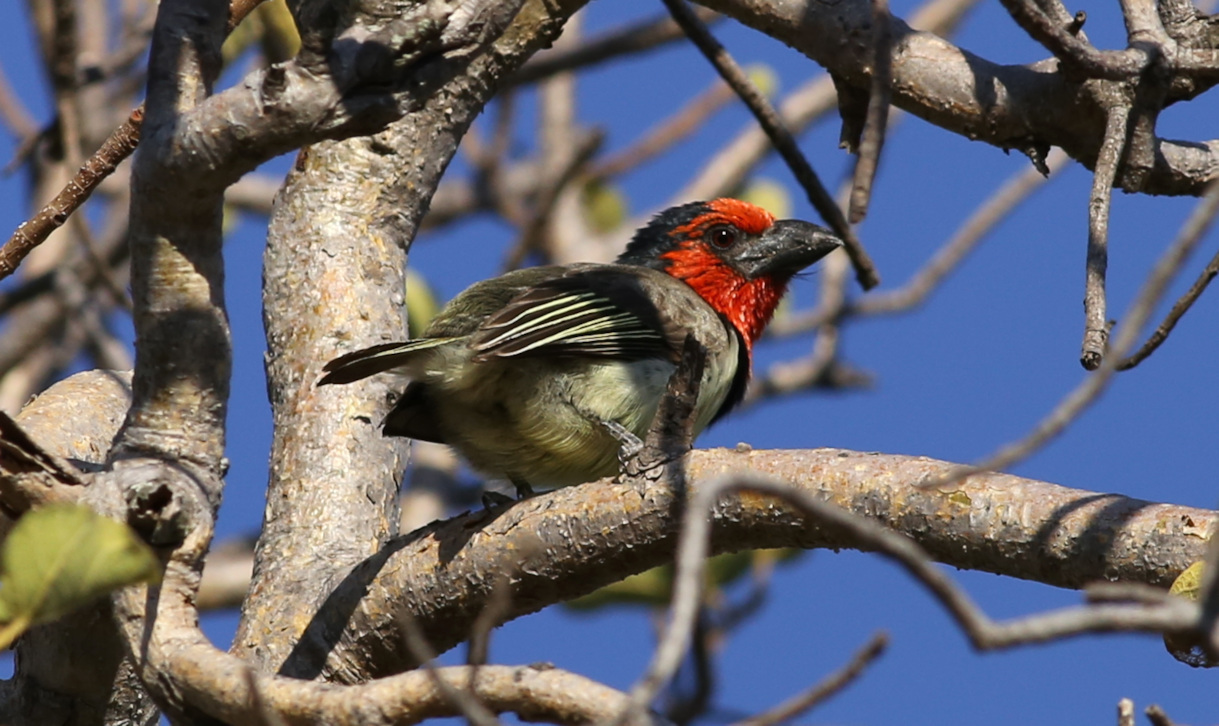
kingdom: Animalia
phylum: Chordata
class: Aves
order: Piciformes
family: Lybiidae
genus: Lybius
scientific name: Lybius torquatus
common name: Black-collared barbet
